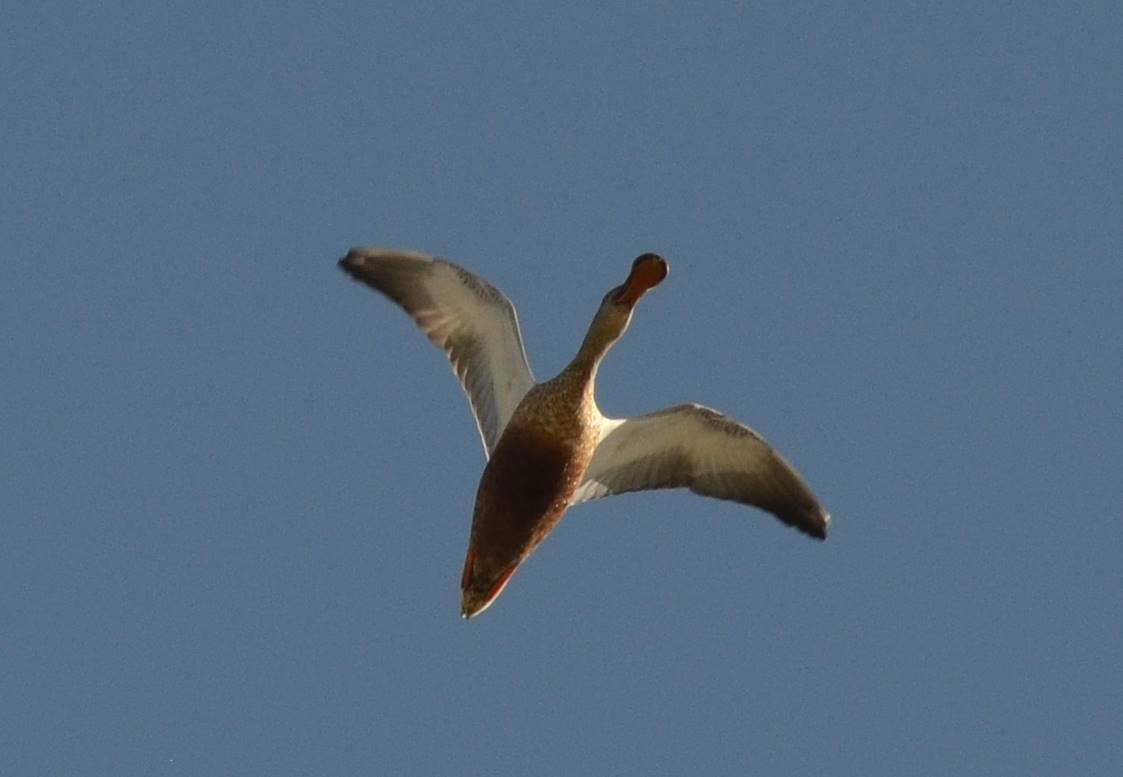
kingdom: Animalia
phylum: Chordata
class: Aves
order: Anseriformes
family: Anatidae
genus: Spatula
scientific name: Spatula clypeata
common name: Northern shoveler
